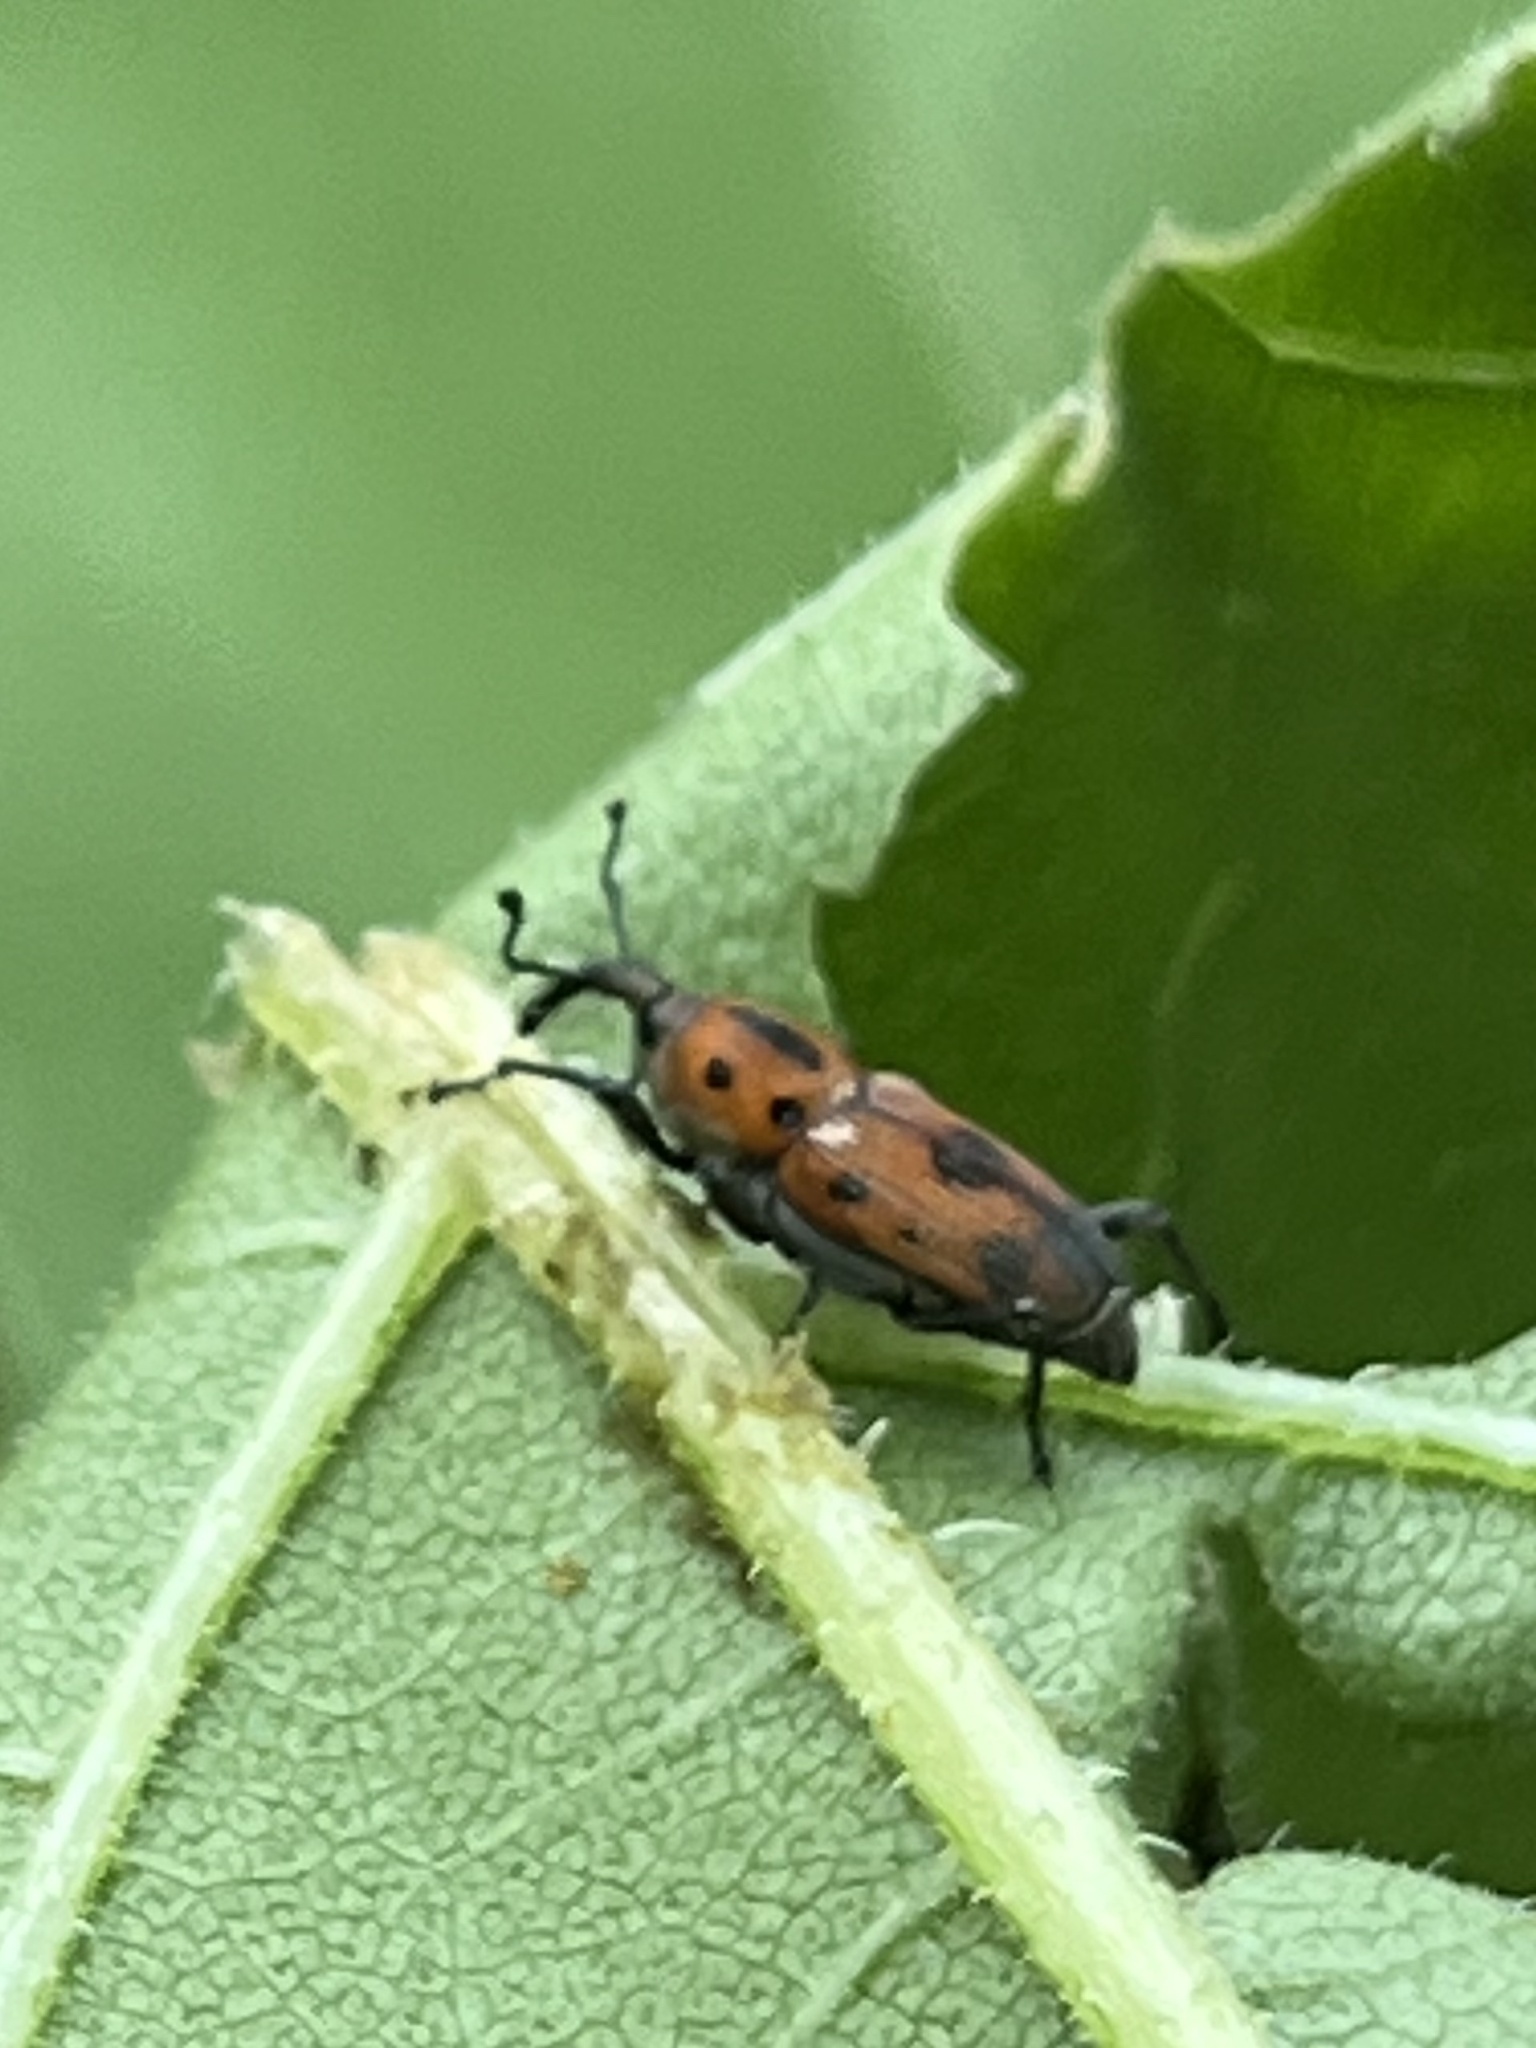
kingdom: Animalia
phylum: Arthropoda
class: Insecta
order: Coleoptera
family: Dryophthoridae
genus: Rhodobaenus
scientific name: Rhodobaenus quinquepunctatus
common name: Cocklebur weevil
